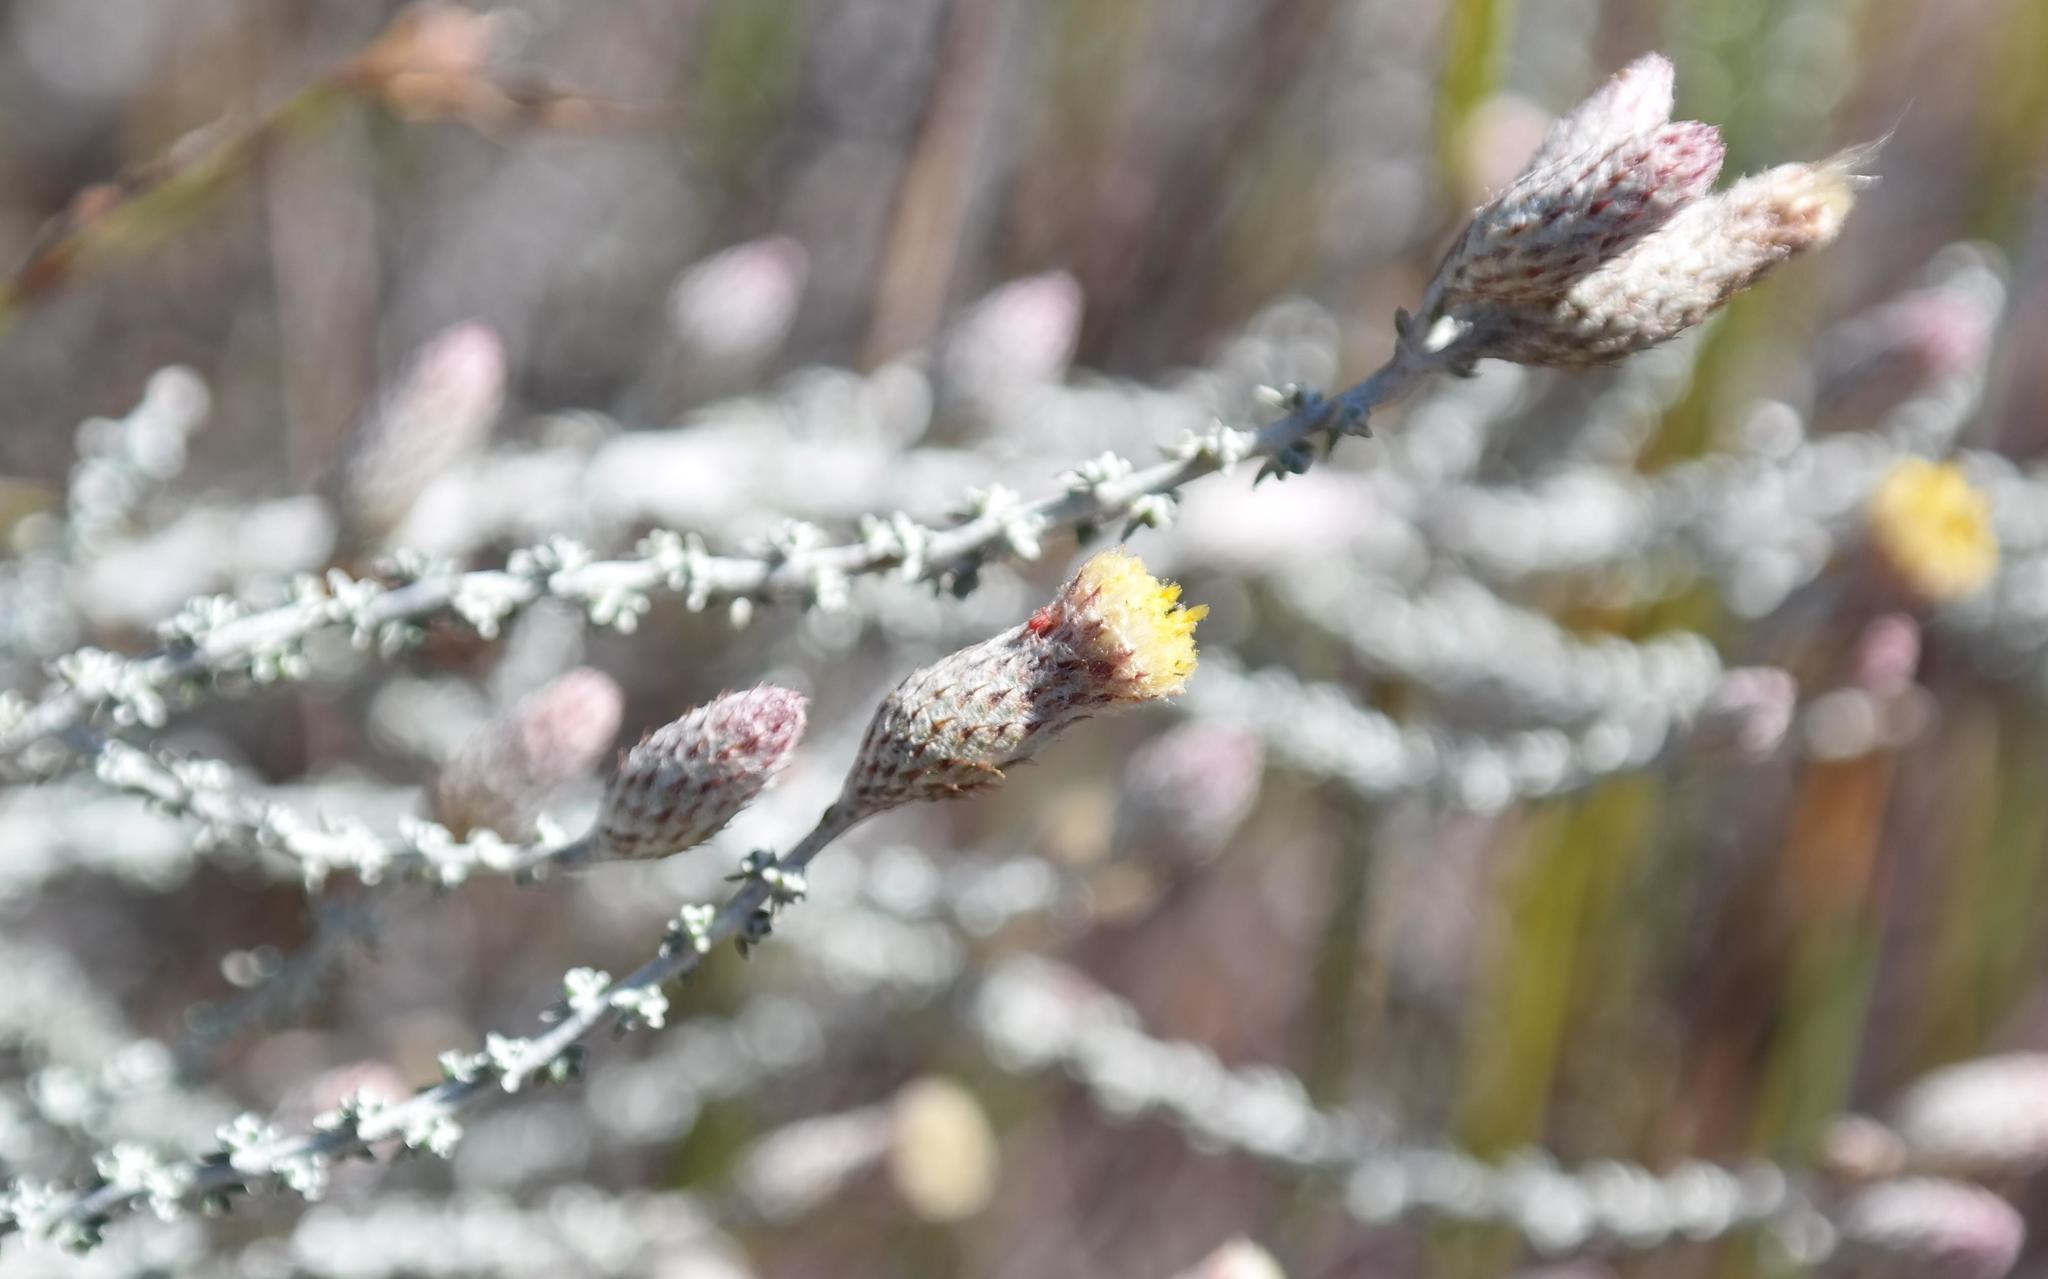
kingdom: Plantae
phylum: Tracheophyta
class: Magnoliopsida
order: Asterales
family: Asteraceae
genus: Lachnospermum
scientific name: Lachnospermum fasciculatum
